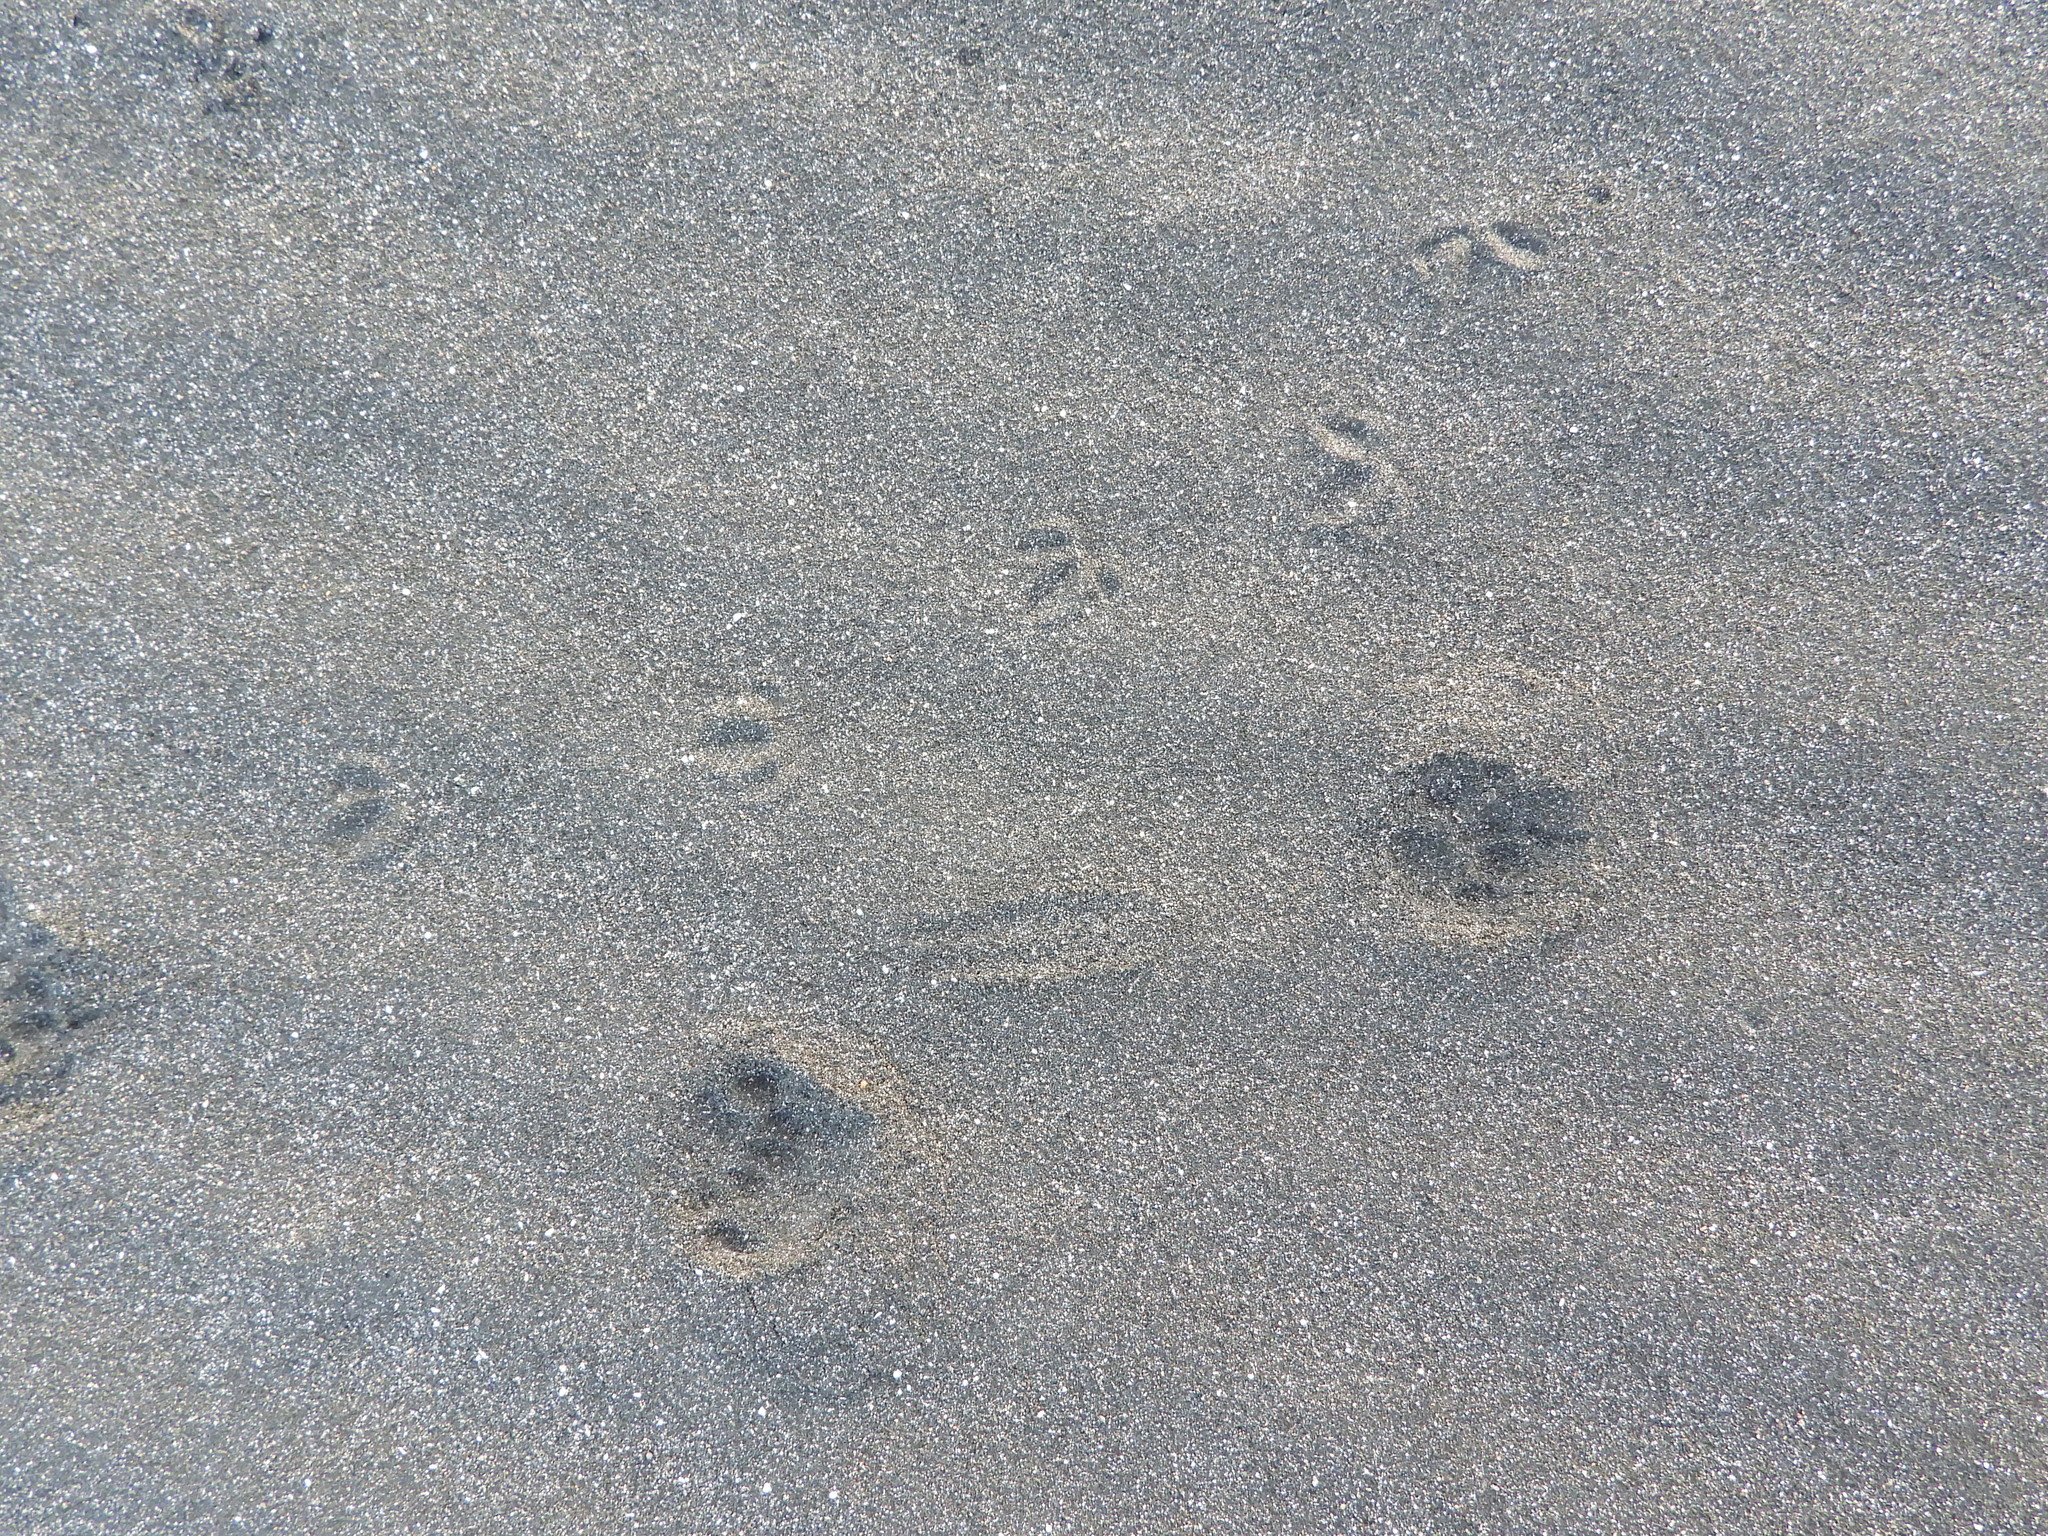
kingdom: Animalia
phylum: Chordata
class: Aves
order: Charadriiformes
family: Charadriidae
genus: Anarhynchus
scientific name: Anarhynchus
